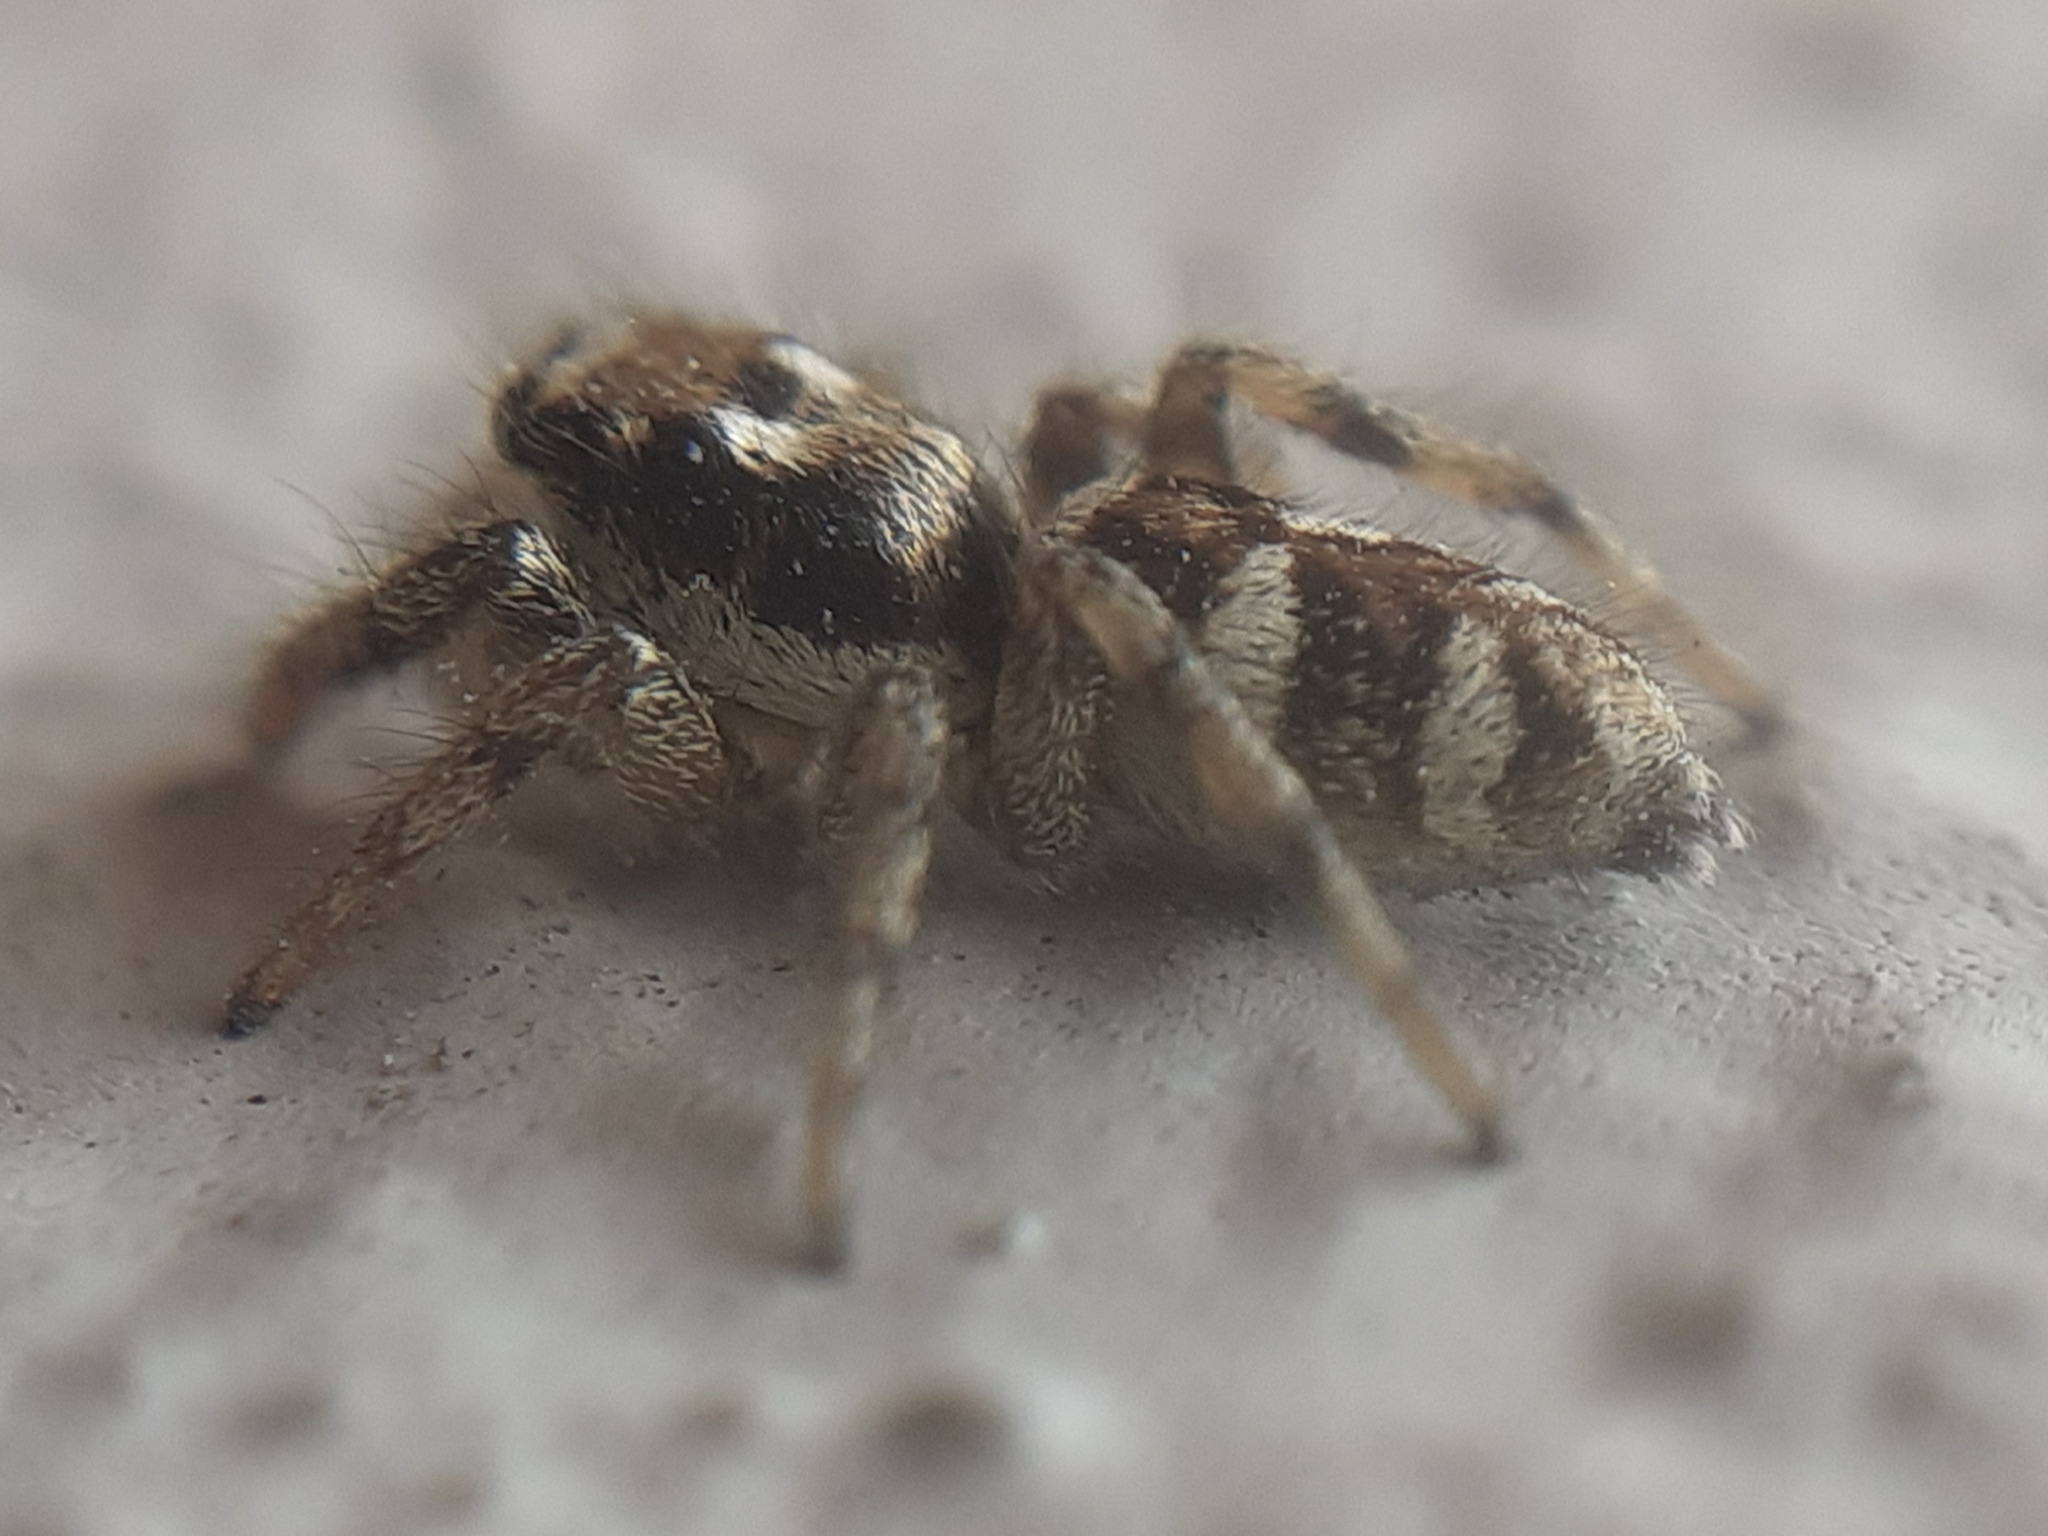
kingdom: Animalia
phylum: Arthropoda
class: Arachnida
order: Araneae
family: Salticidae
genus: Salticus
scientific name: Salticus scenicus
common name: Zebra jumper
